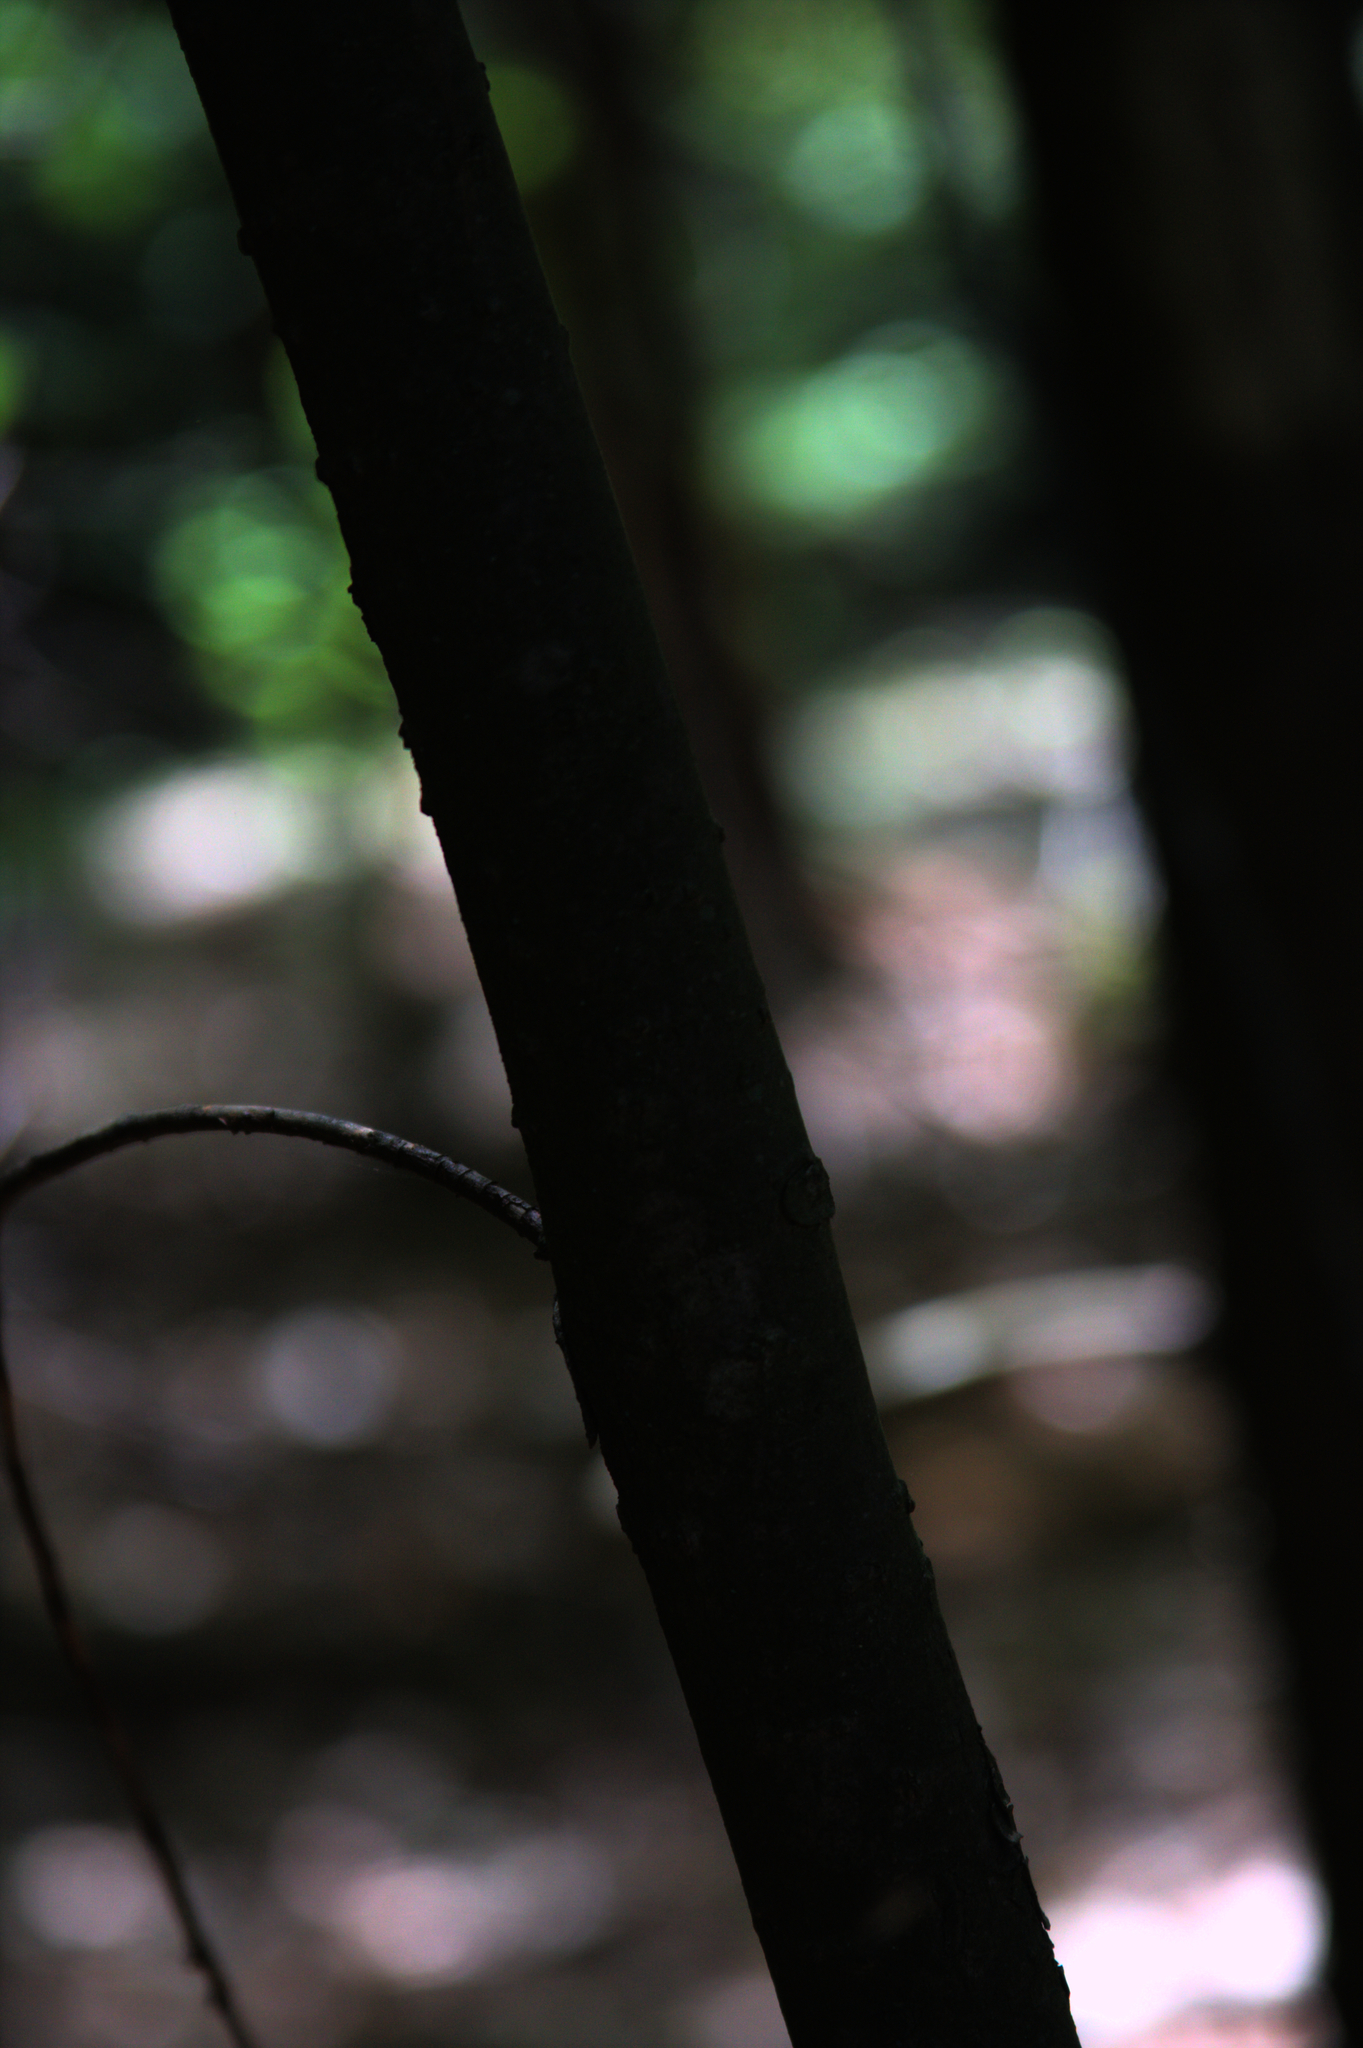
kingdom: Plantae
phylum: Tracheophyta
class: Pinopsida
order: Pinales
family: Pinaceae
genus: Tsuga
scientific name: Tsuga canadensis
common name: Eastern hemlock
